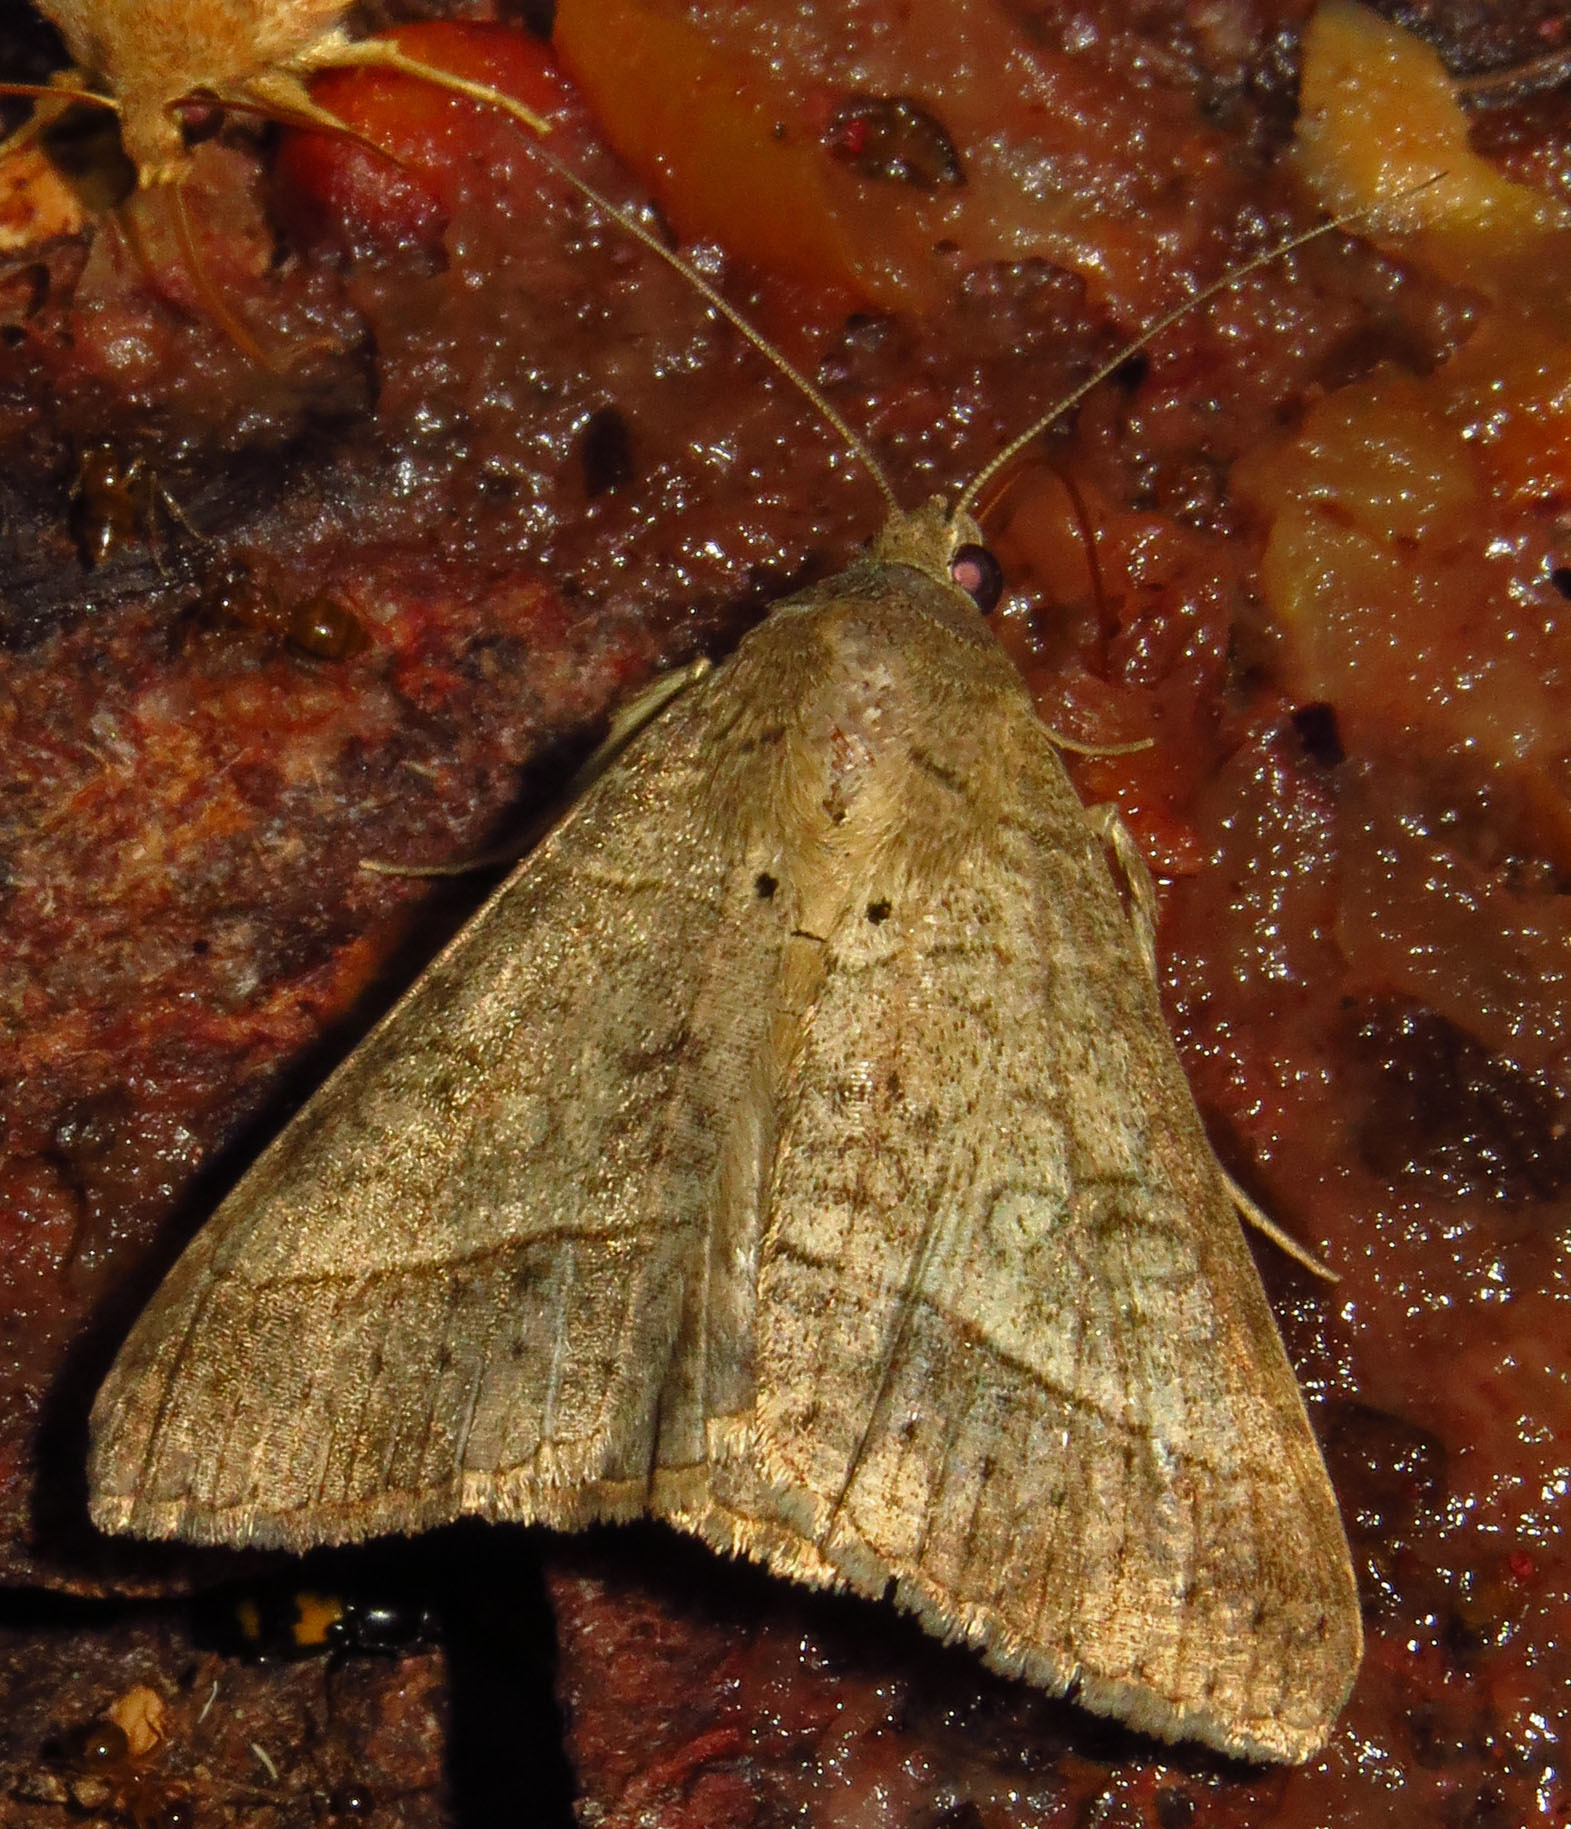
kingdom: Animalia
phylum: Arthropoda
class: Insecta
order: Lepidoptera
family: Erebidae
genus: Mocis
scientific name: Mocis latipes
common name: Striped grass looper
